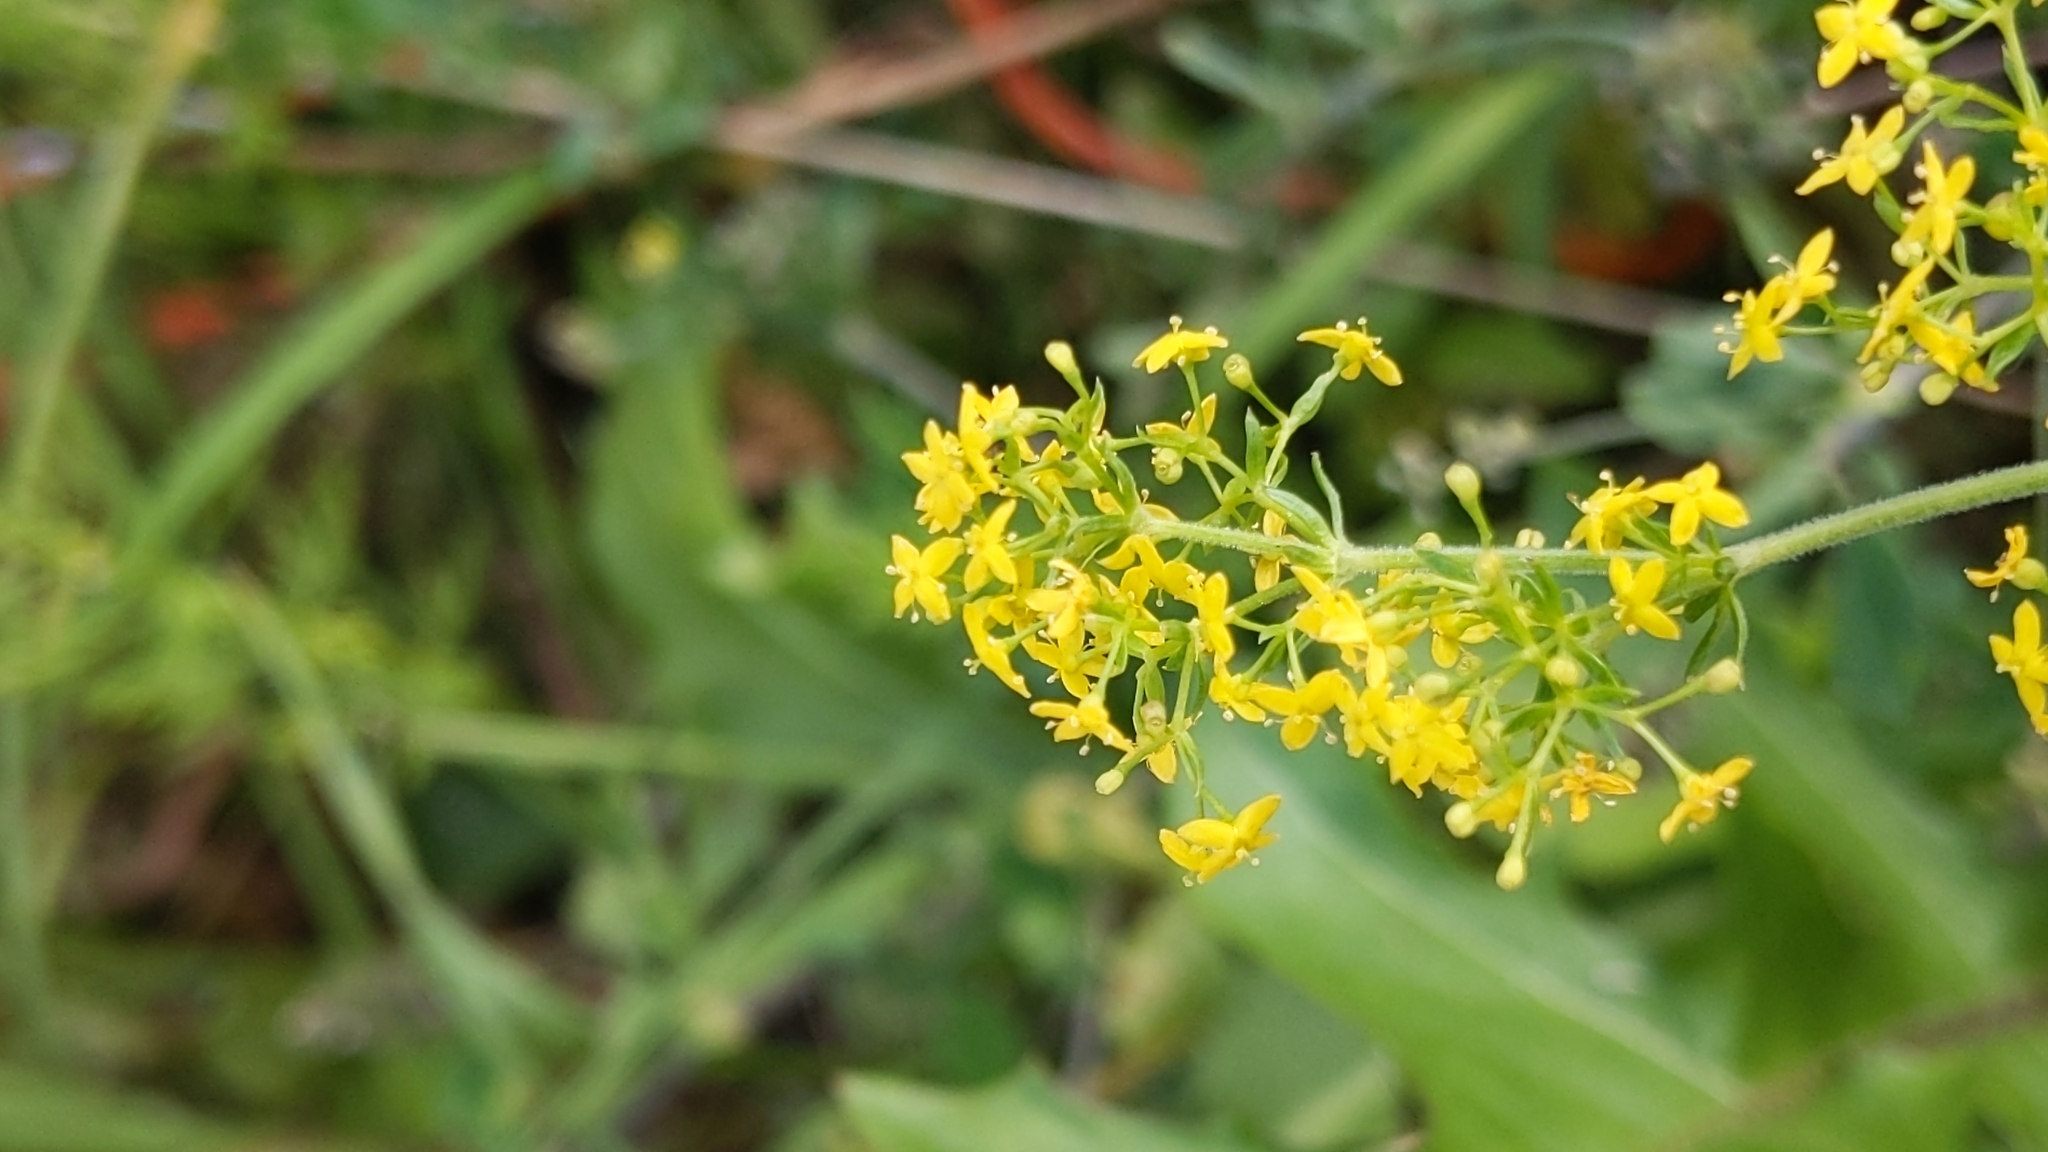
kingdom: Plantae
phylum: Tracheophyta
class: Magnoliopsida
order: Gentianales
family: Rubiaceae
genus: Galium
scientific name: Galium verum
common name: Lady's bedstraw
